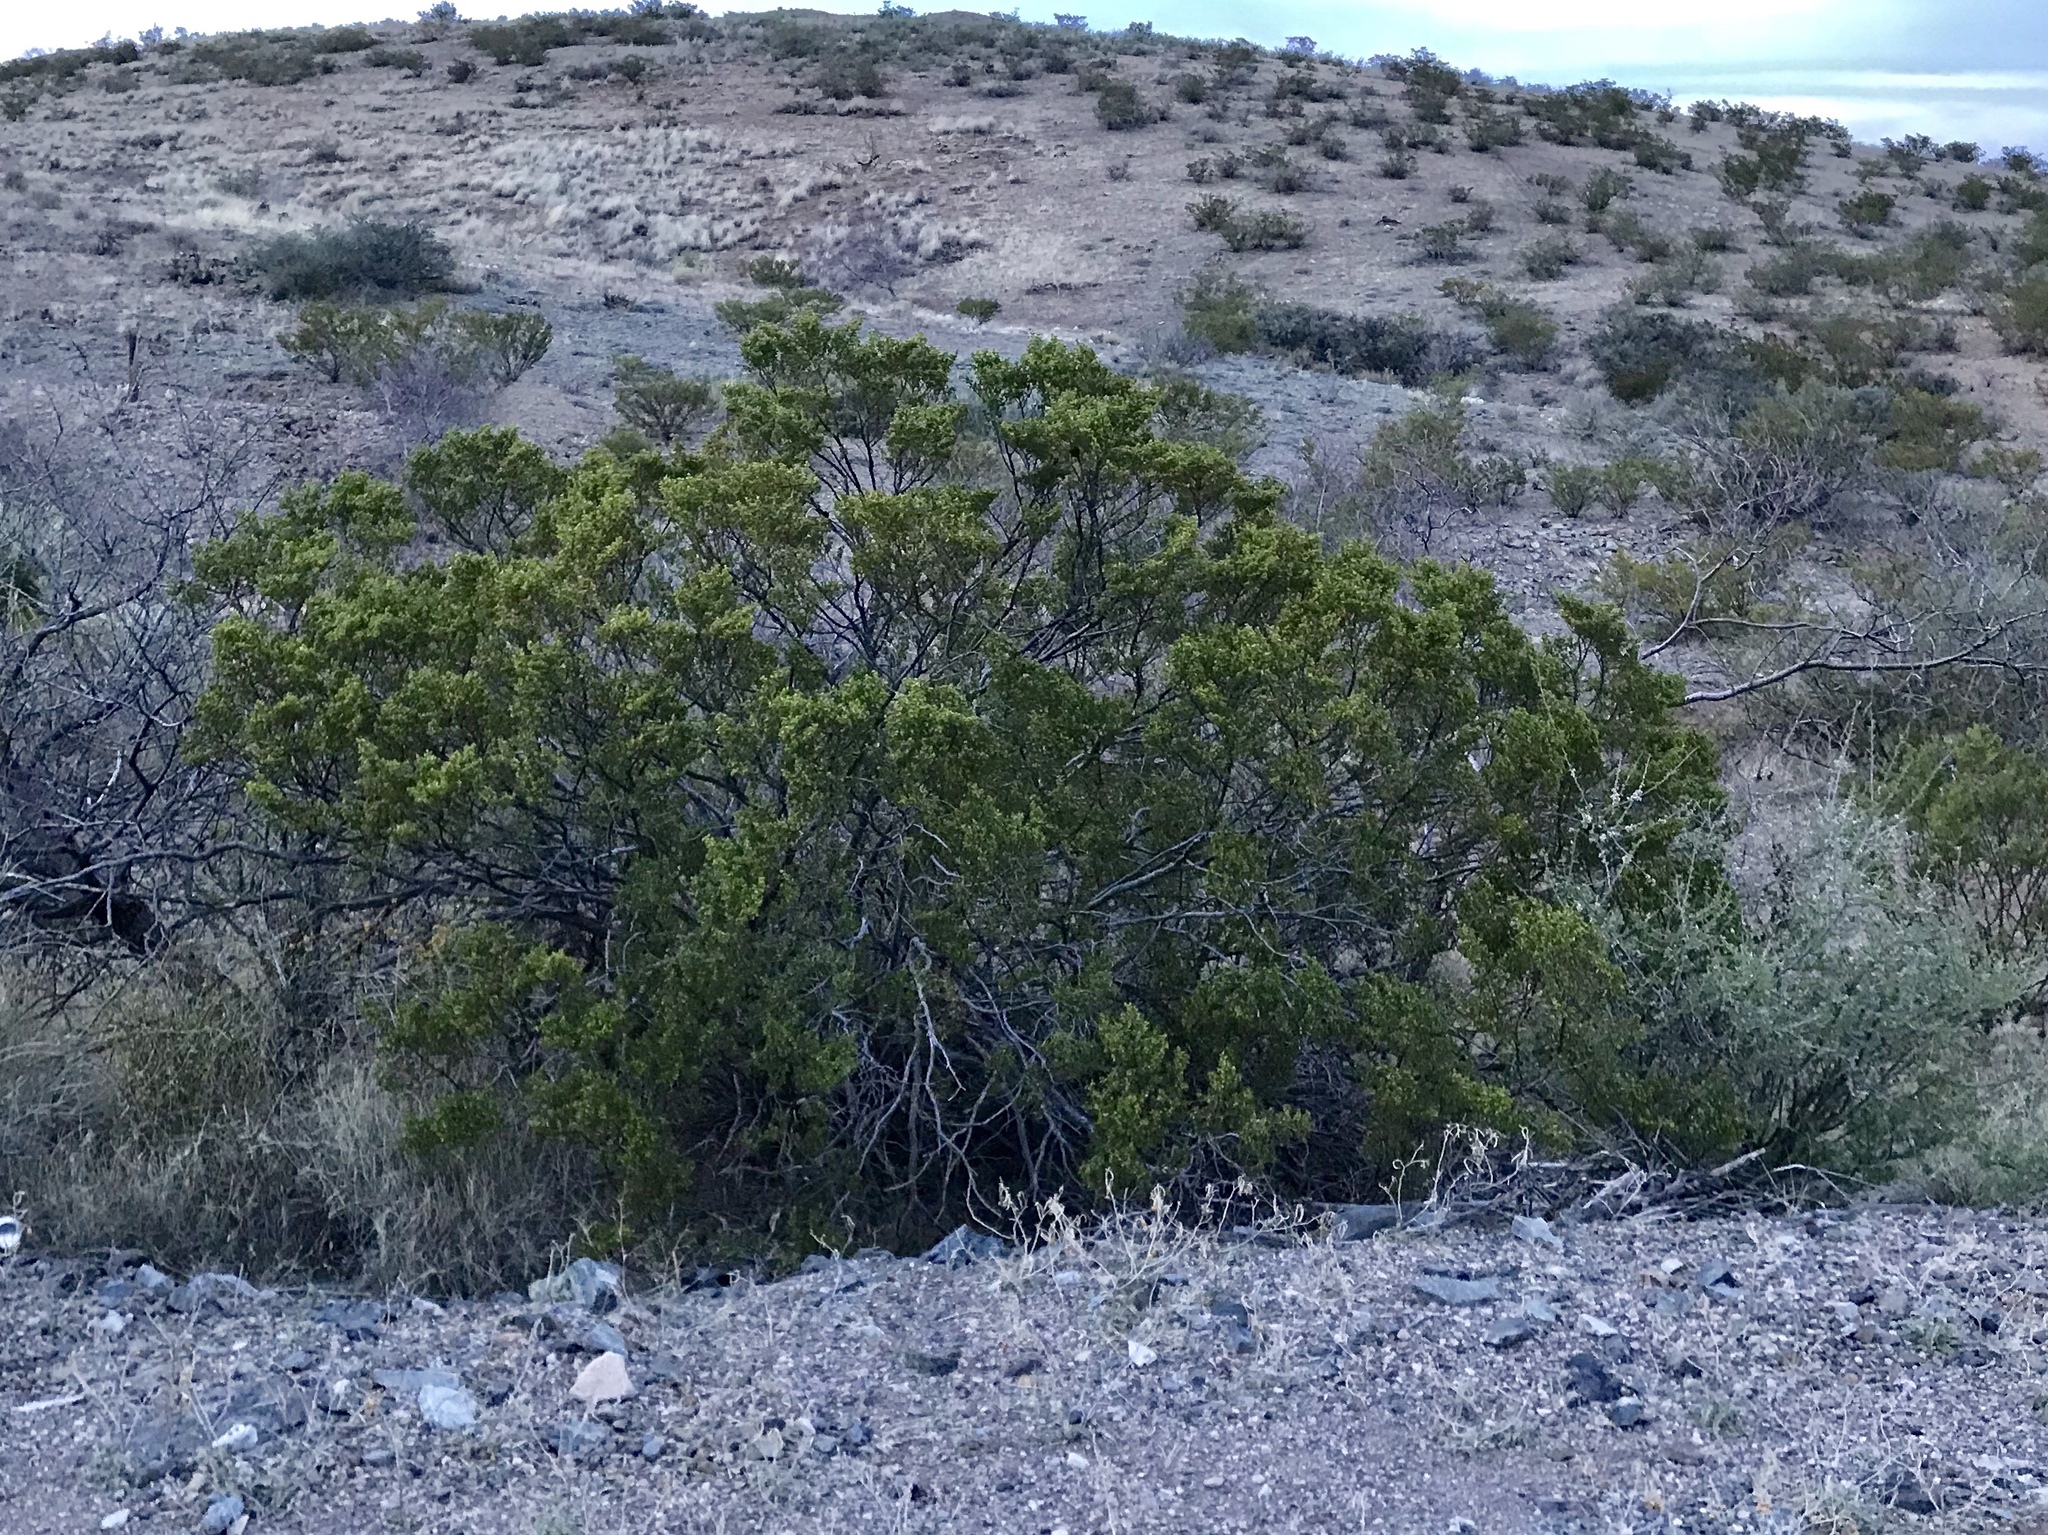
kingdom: Plantae
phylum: Tracheophyta
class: Magnoliopsida
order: Zygophyllales
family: Zygophyllaceae
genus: Larrea
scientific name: Larrea tridentata
